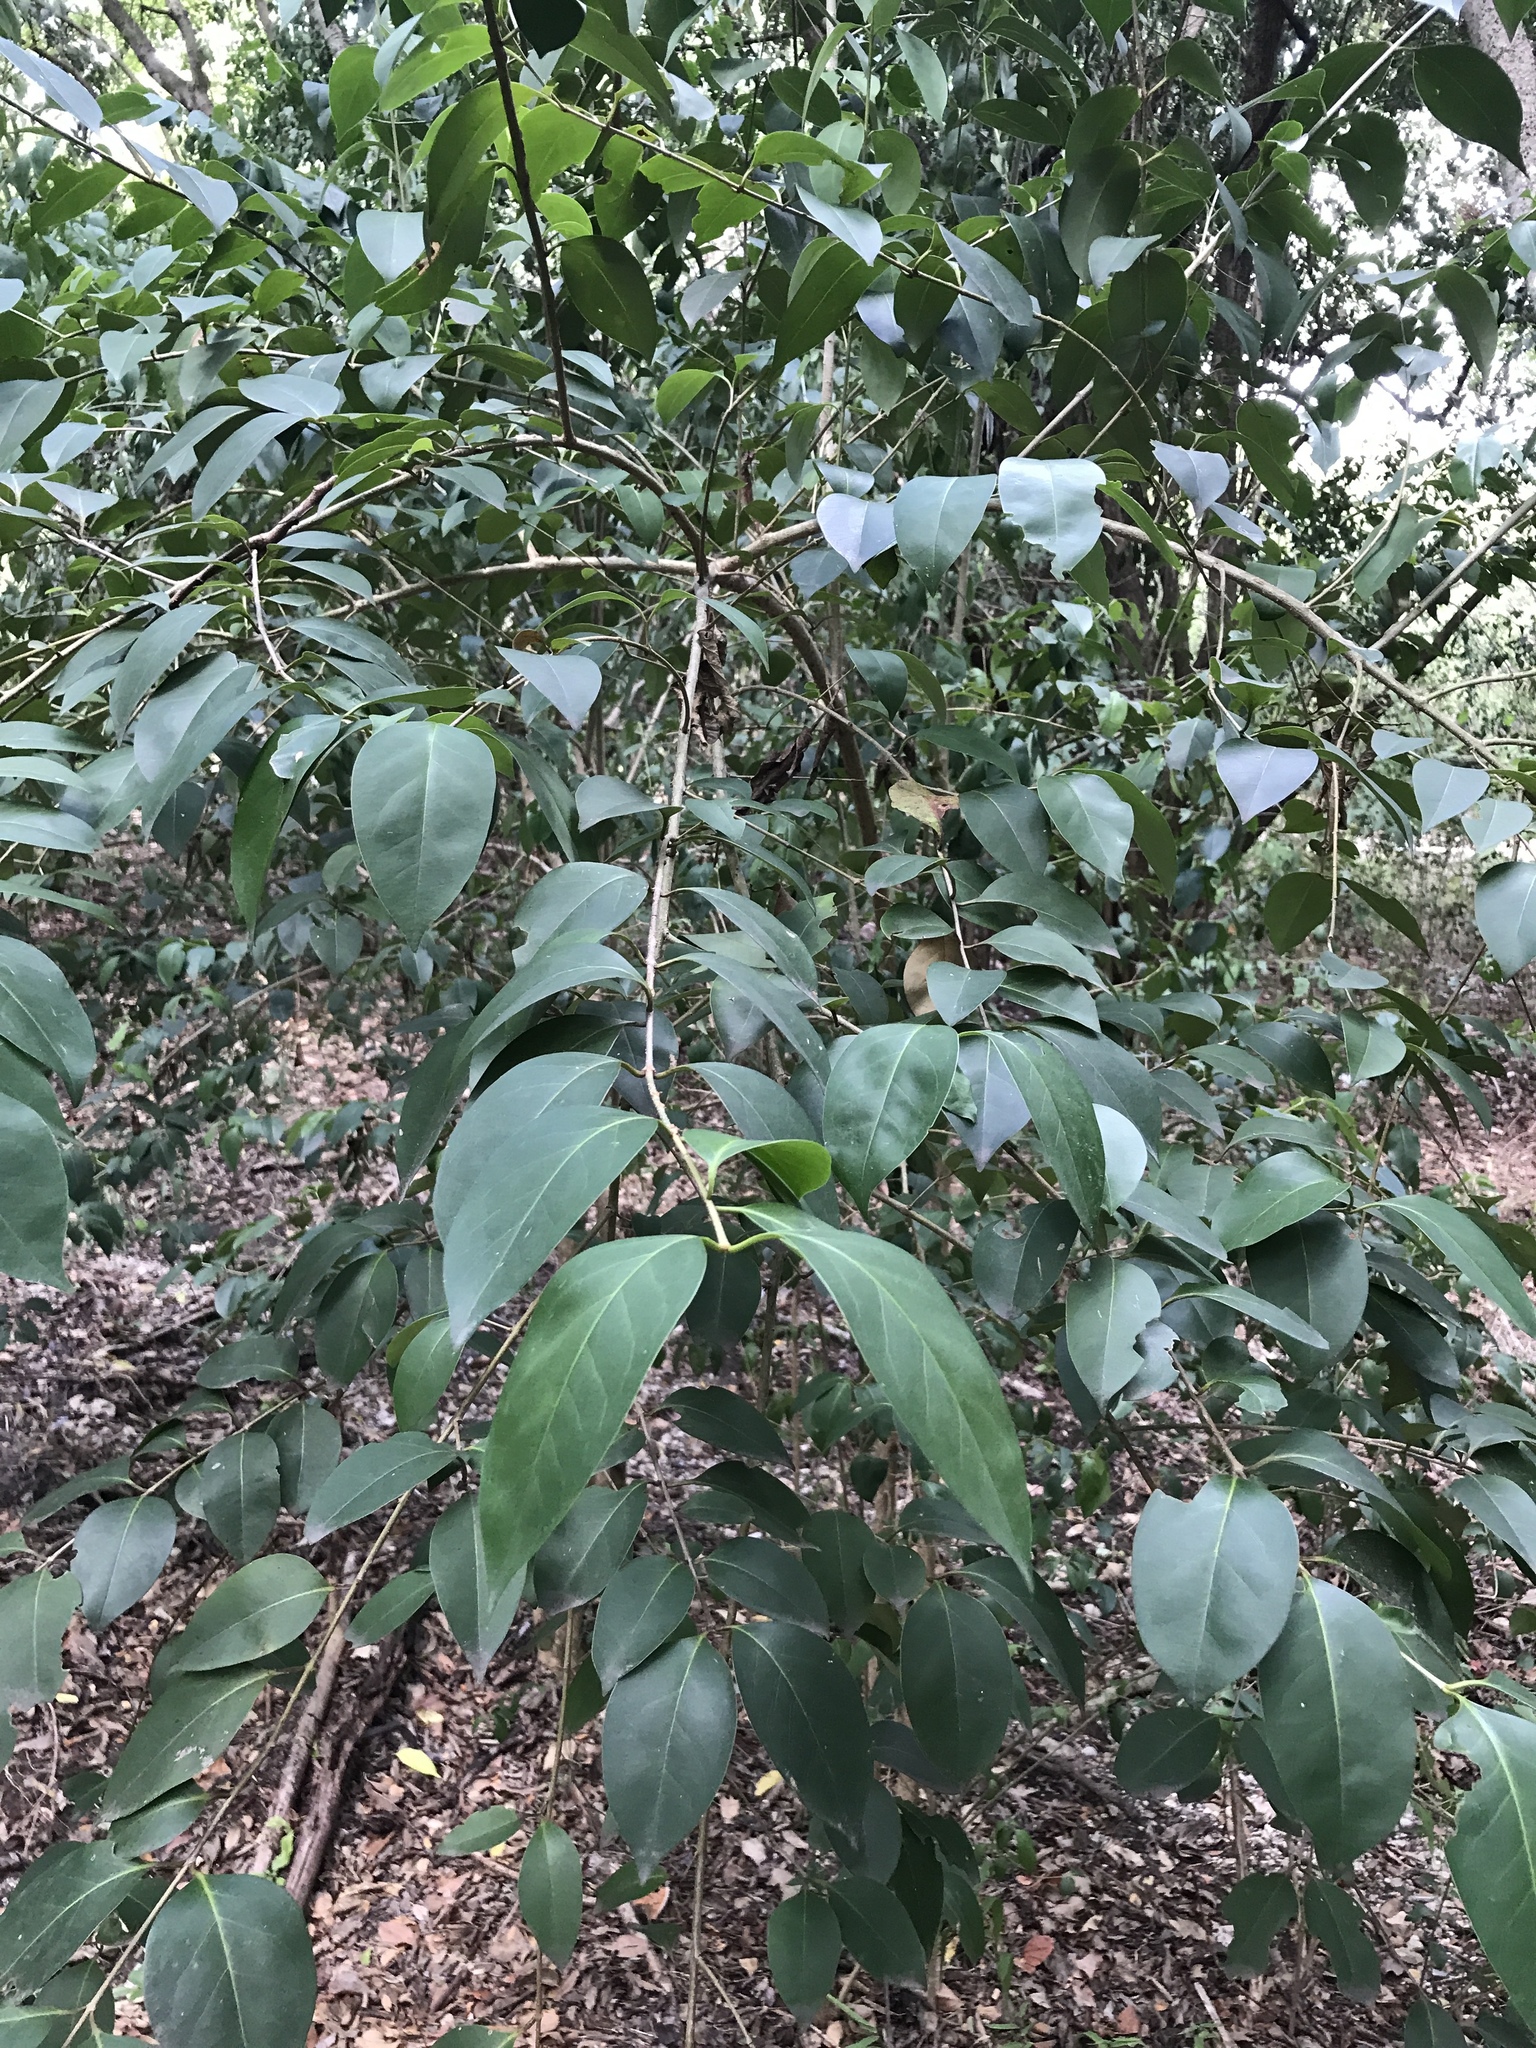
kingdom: Plantae
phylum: Tracheophyta
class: Magnoliopsida
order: Lamiales
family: Oleaceae
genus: Ligustrum
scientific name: Ligustrum lucidum
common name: Glossy privet
